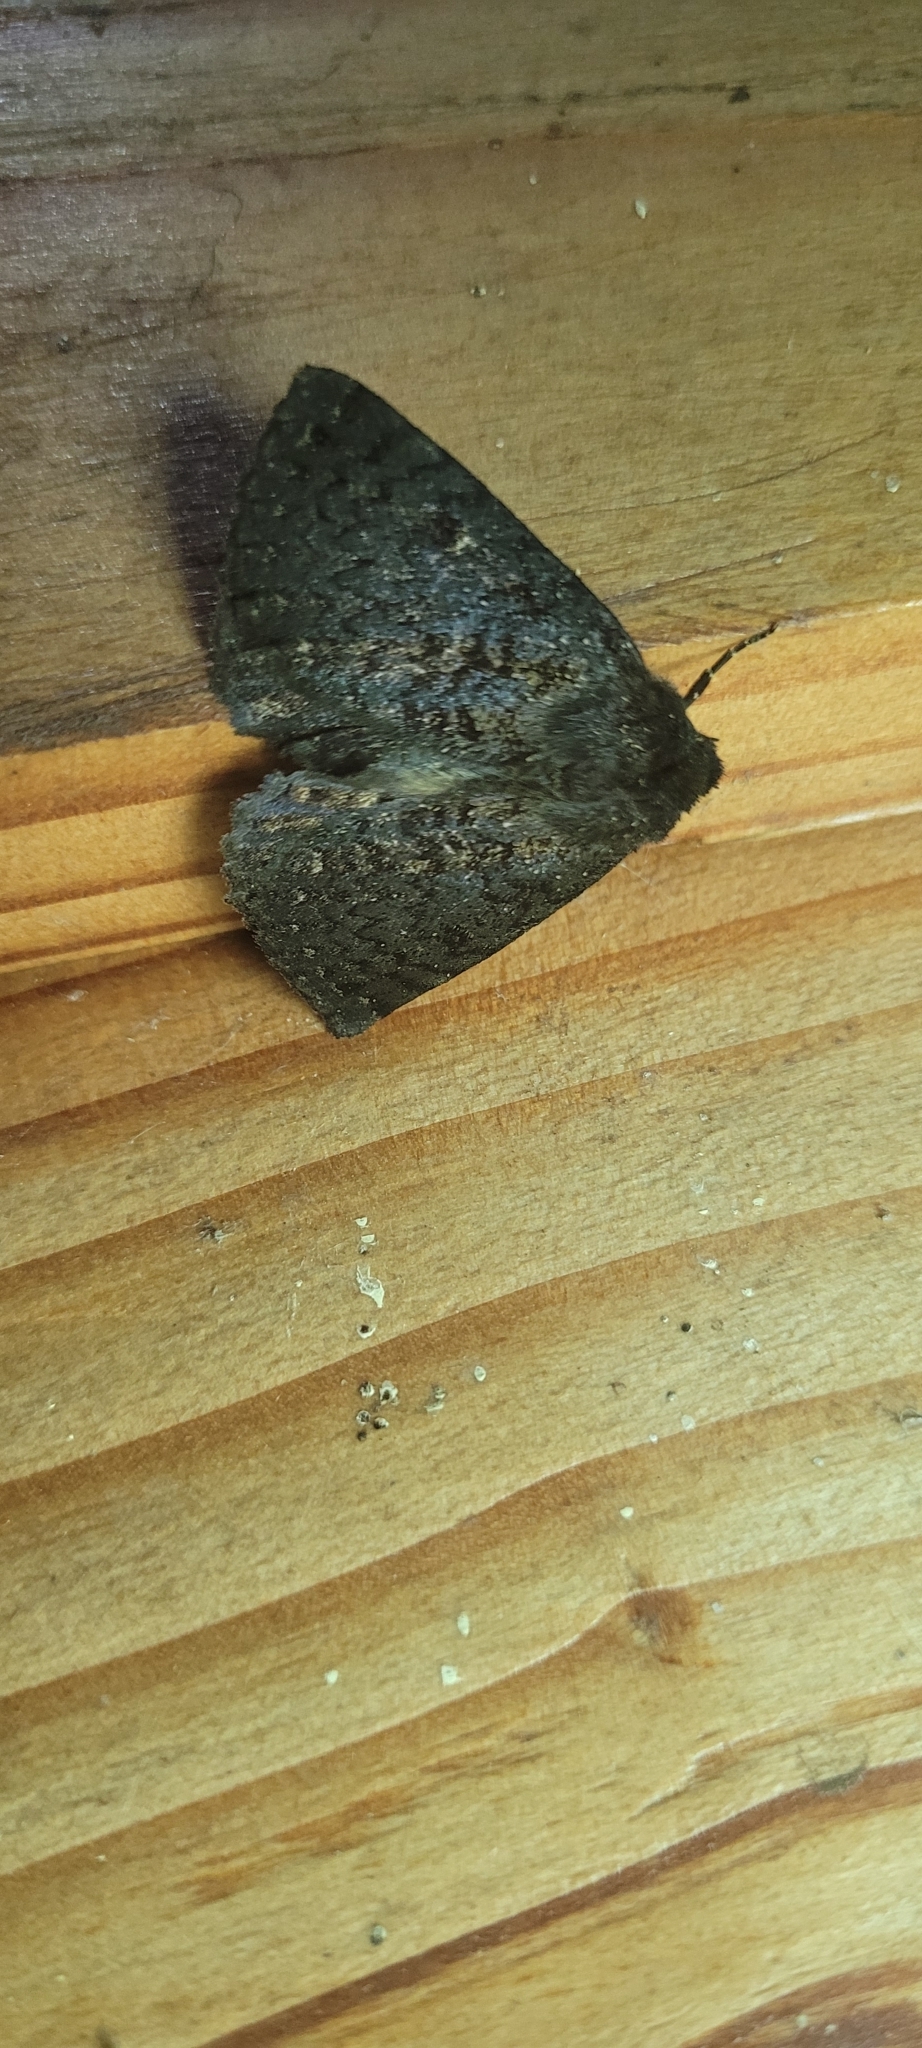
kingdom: Animalia
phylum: Arthropoda
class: Insecta
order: Lepidoptera
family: Erebidae
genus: Edmondsia
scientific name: Edmondsia sypnoides
